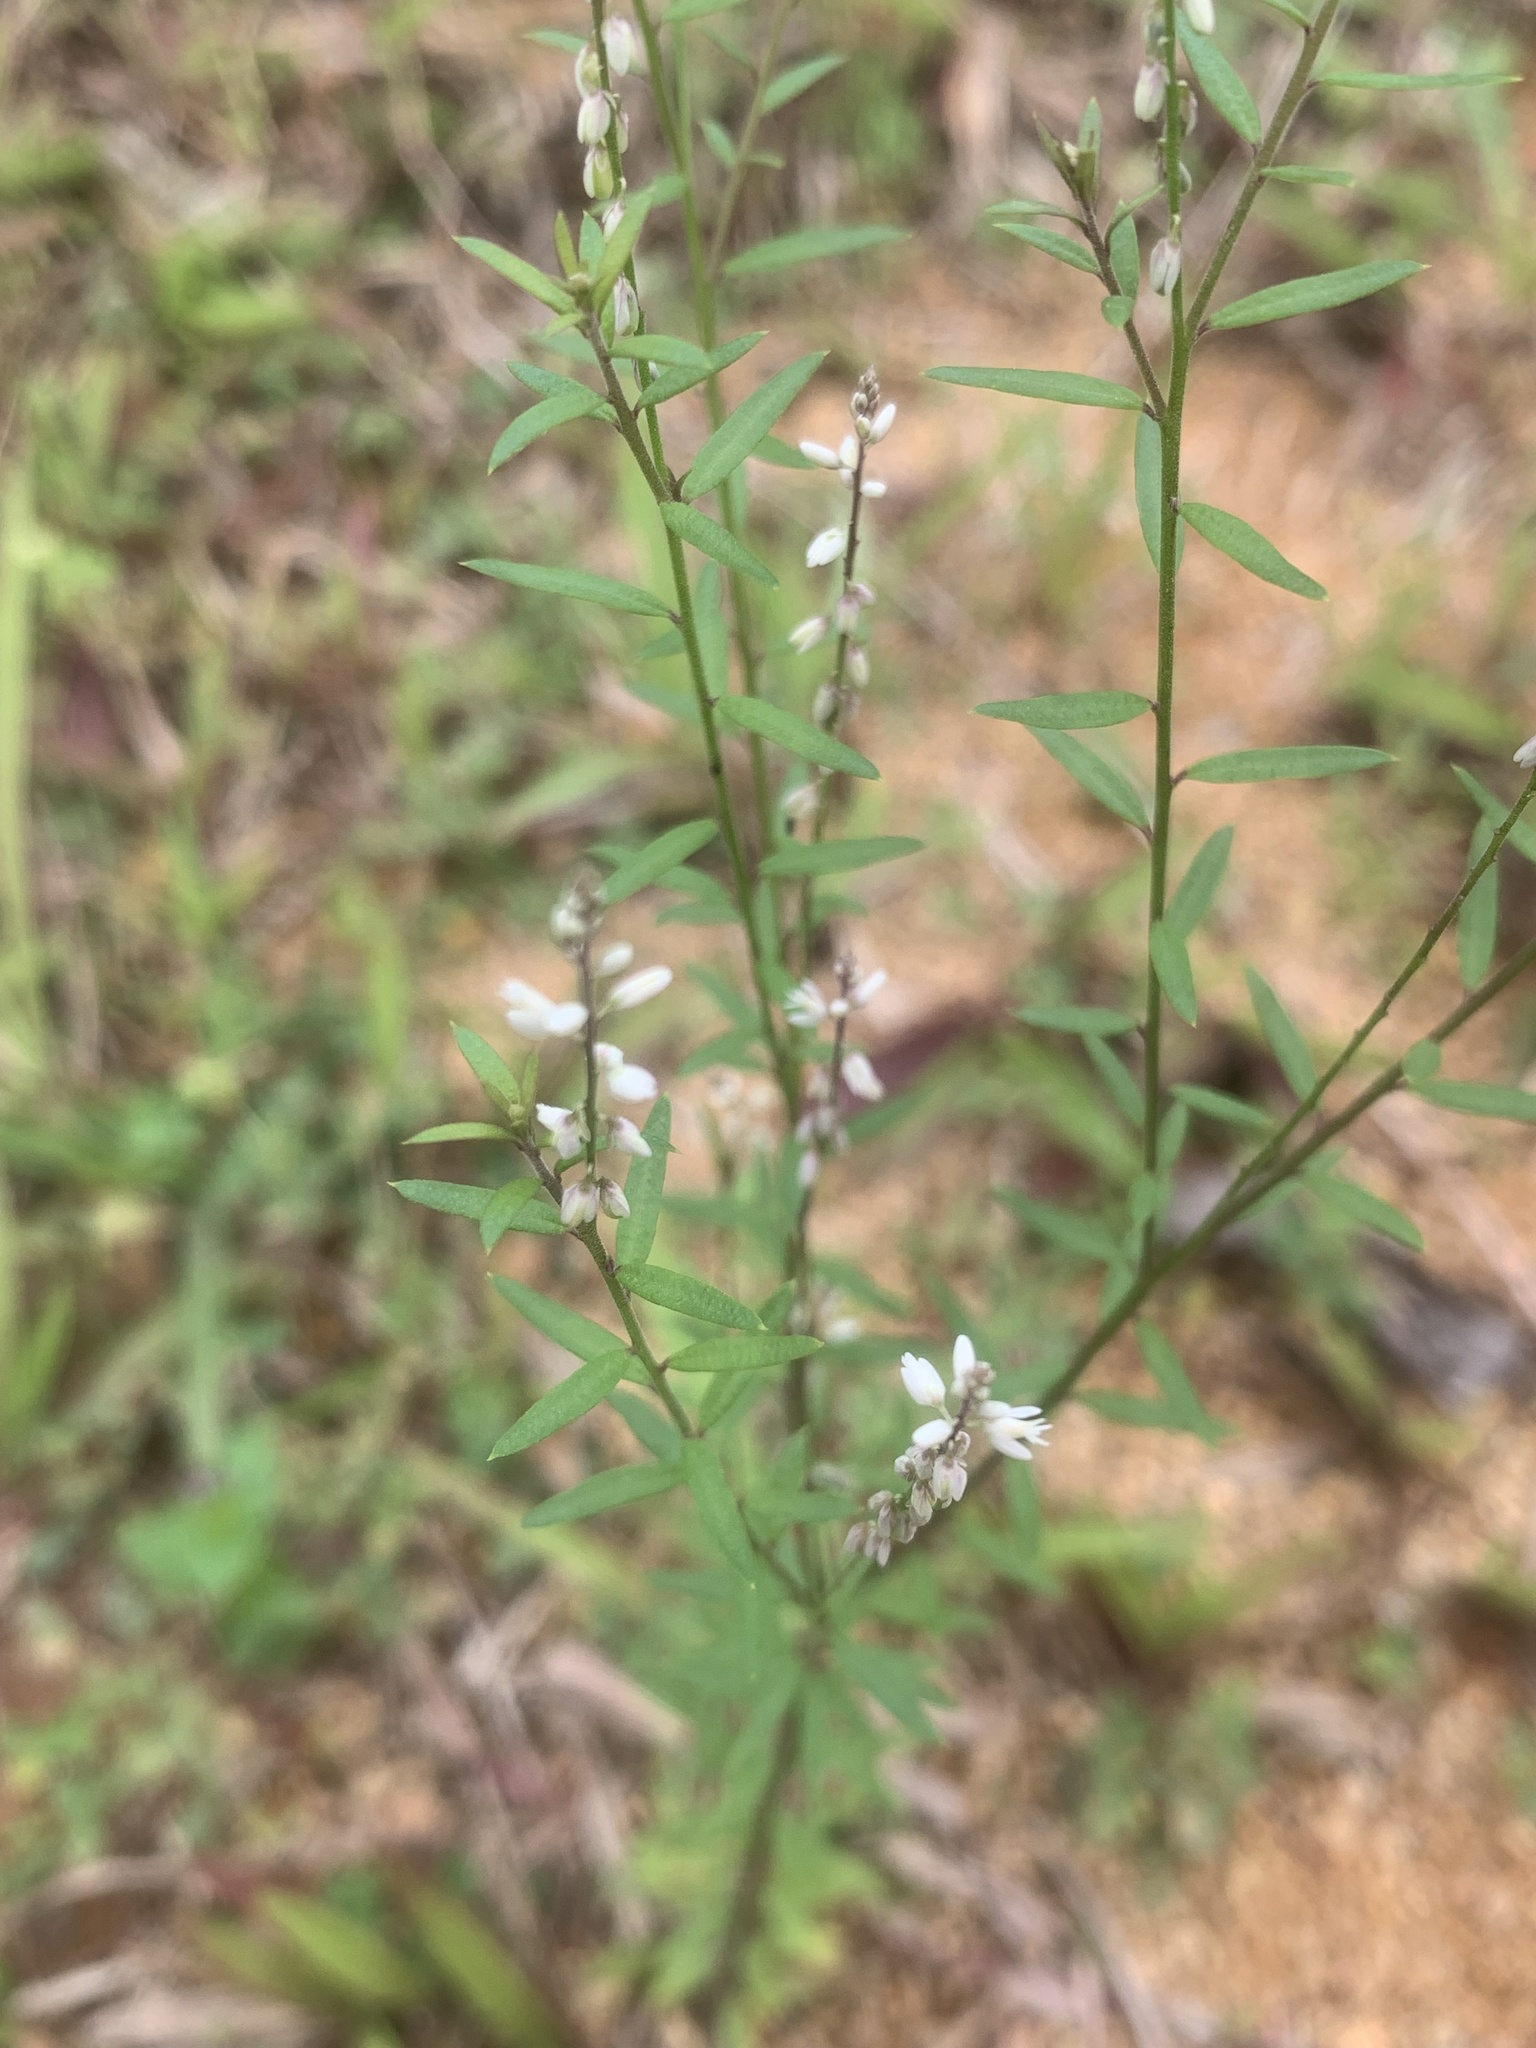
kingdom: Plantae
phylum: Tracheophyta
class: Magnoliopsida
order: Fabales
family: Polygalaceae
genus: Polygala
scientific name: Polygala paniculata
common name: Orosne
